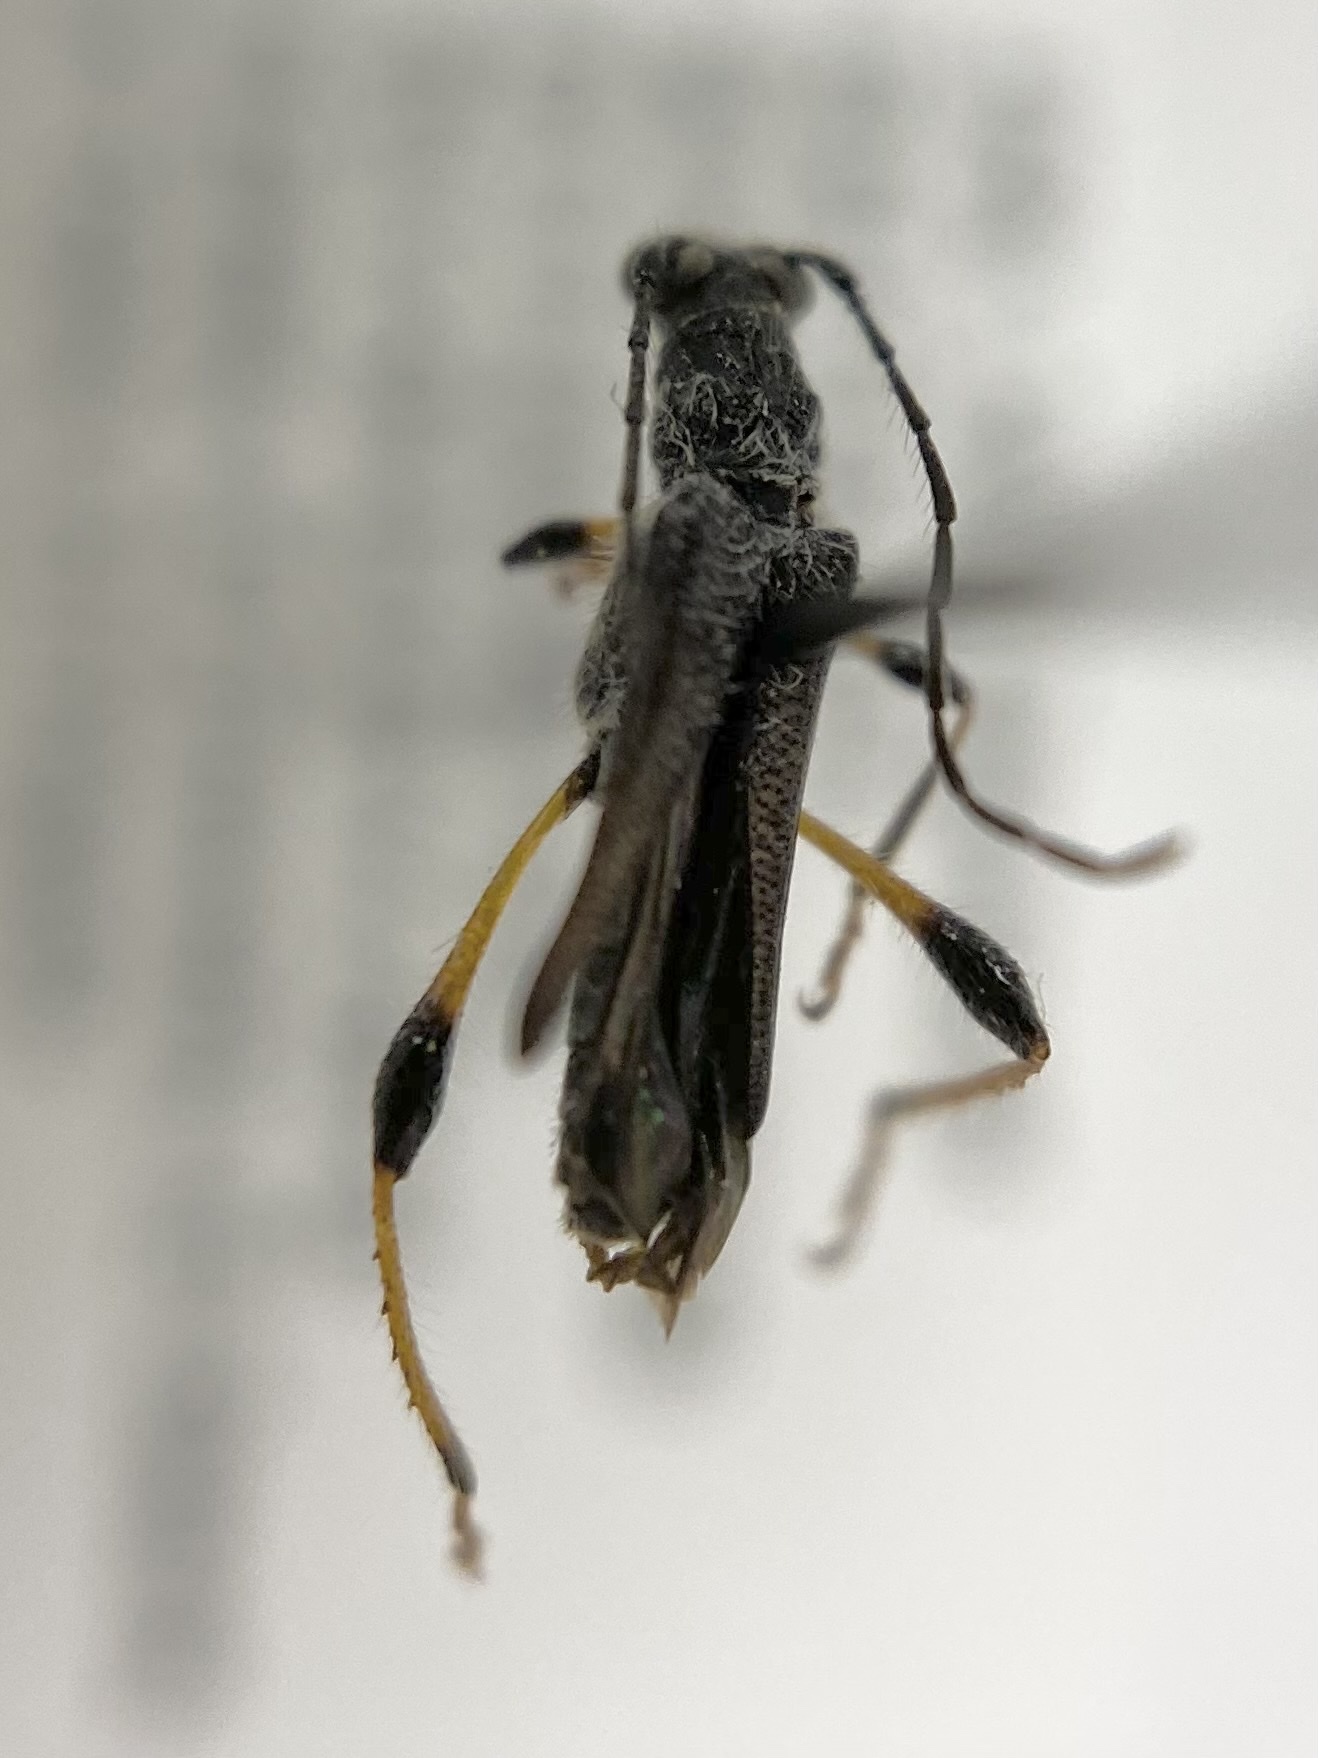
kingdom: Animalia
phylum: Arthropoda
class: Insecta
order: Coleoptera
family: Cerambycidae
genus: Callimoxys
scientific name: Callimoxys sanguinicollis
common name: Blood-necked longhorn beetle
